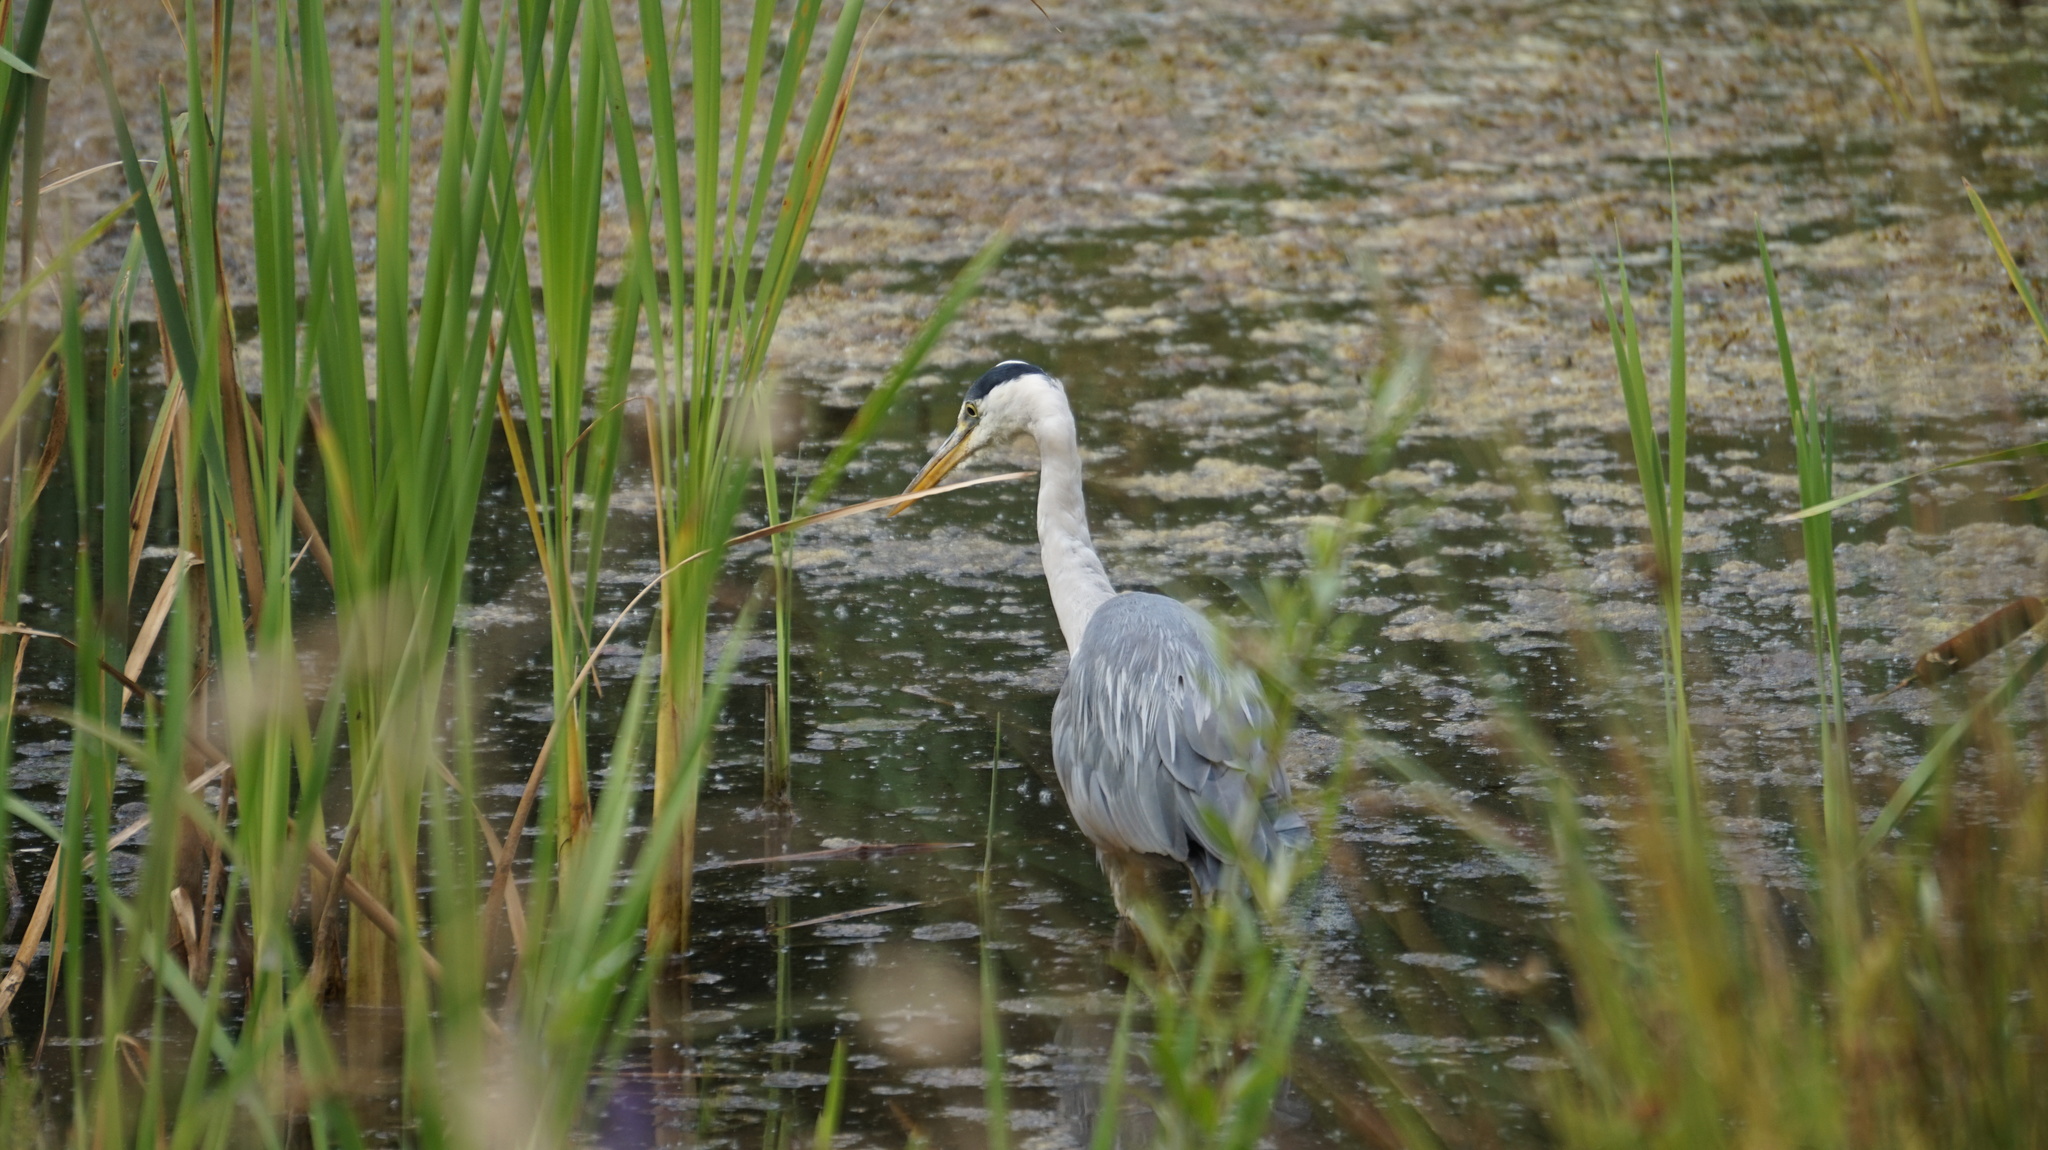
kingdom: Animalia
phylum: Chordata
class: Aves
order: Pelecaniformes
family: Ardeidae
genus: Ardea
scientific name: Ardea cinerea
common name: Grey heron
